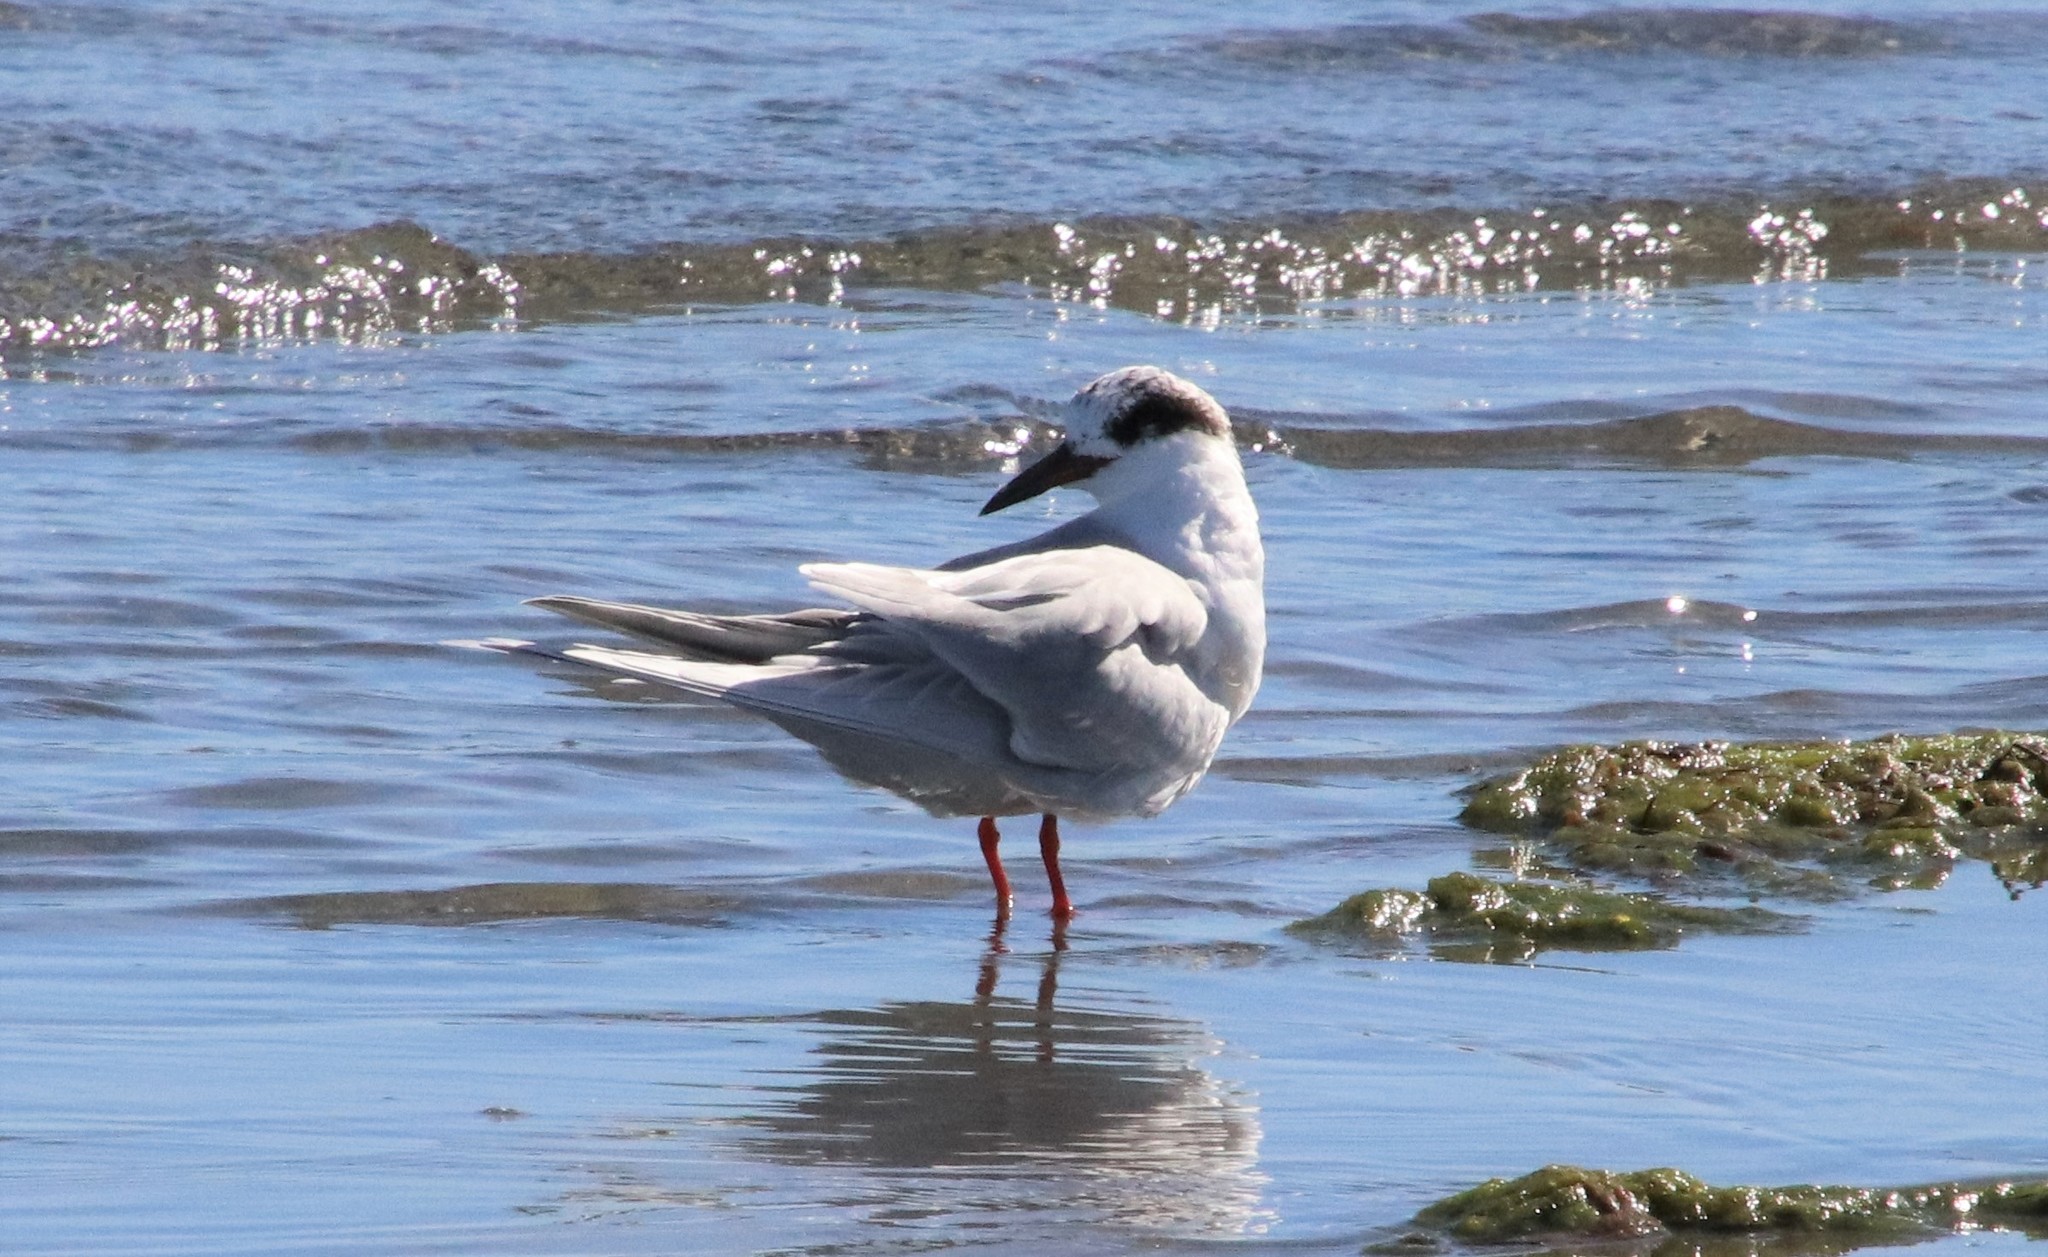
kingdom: Animalia
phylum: Chordata
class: Aves
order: Charadriiformes
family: Laridae
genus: Sterna
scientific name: Sterna forsteri
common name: Forster's tern
